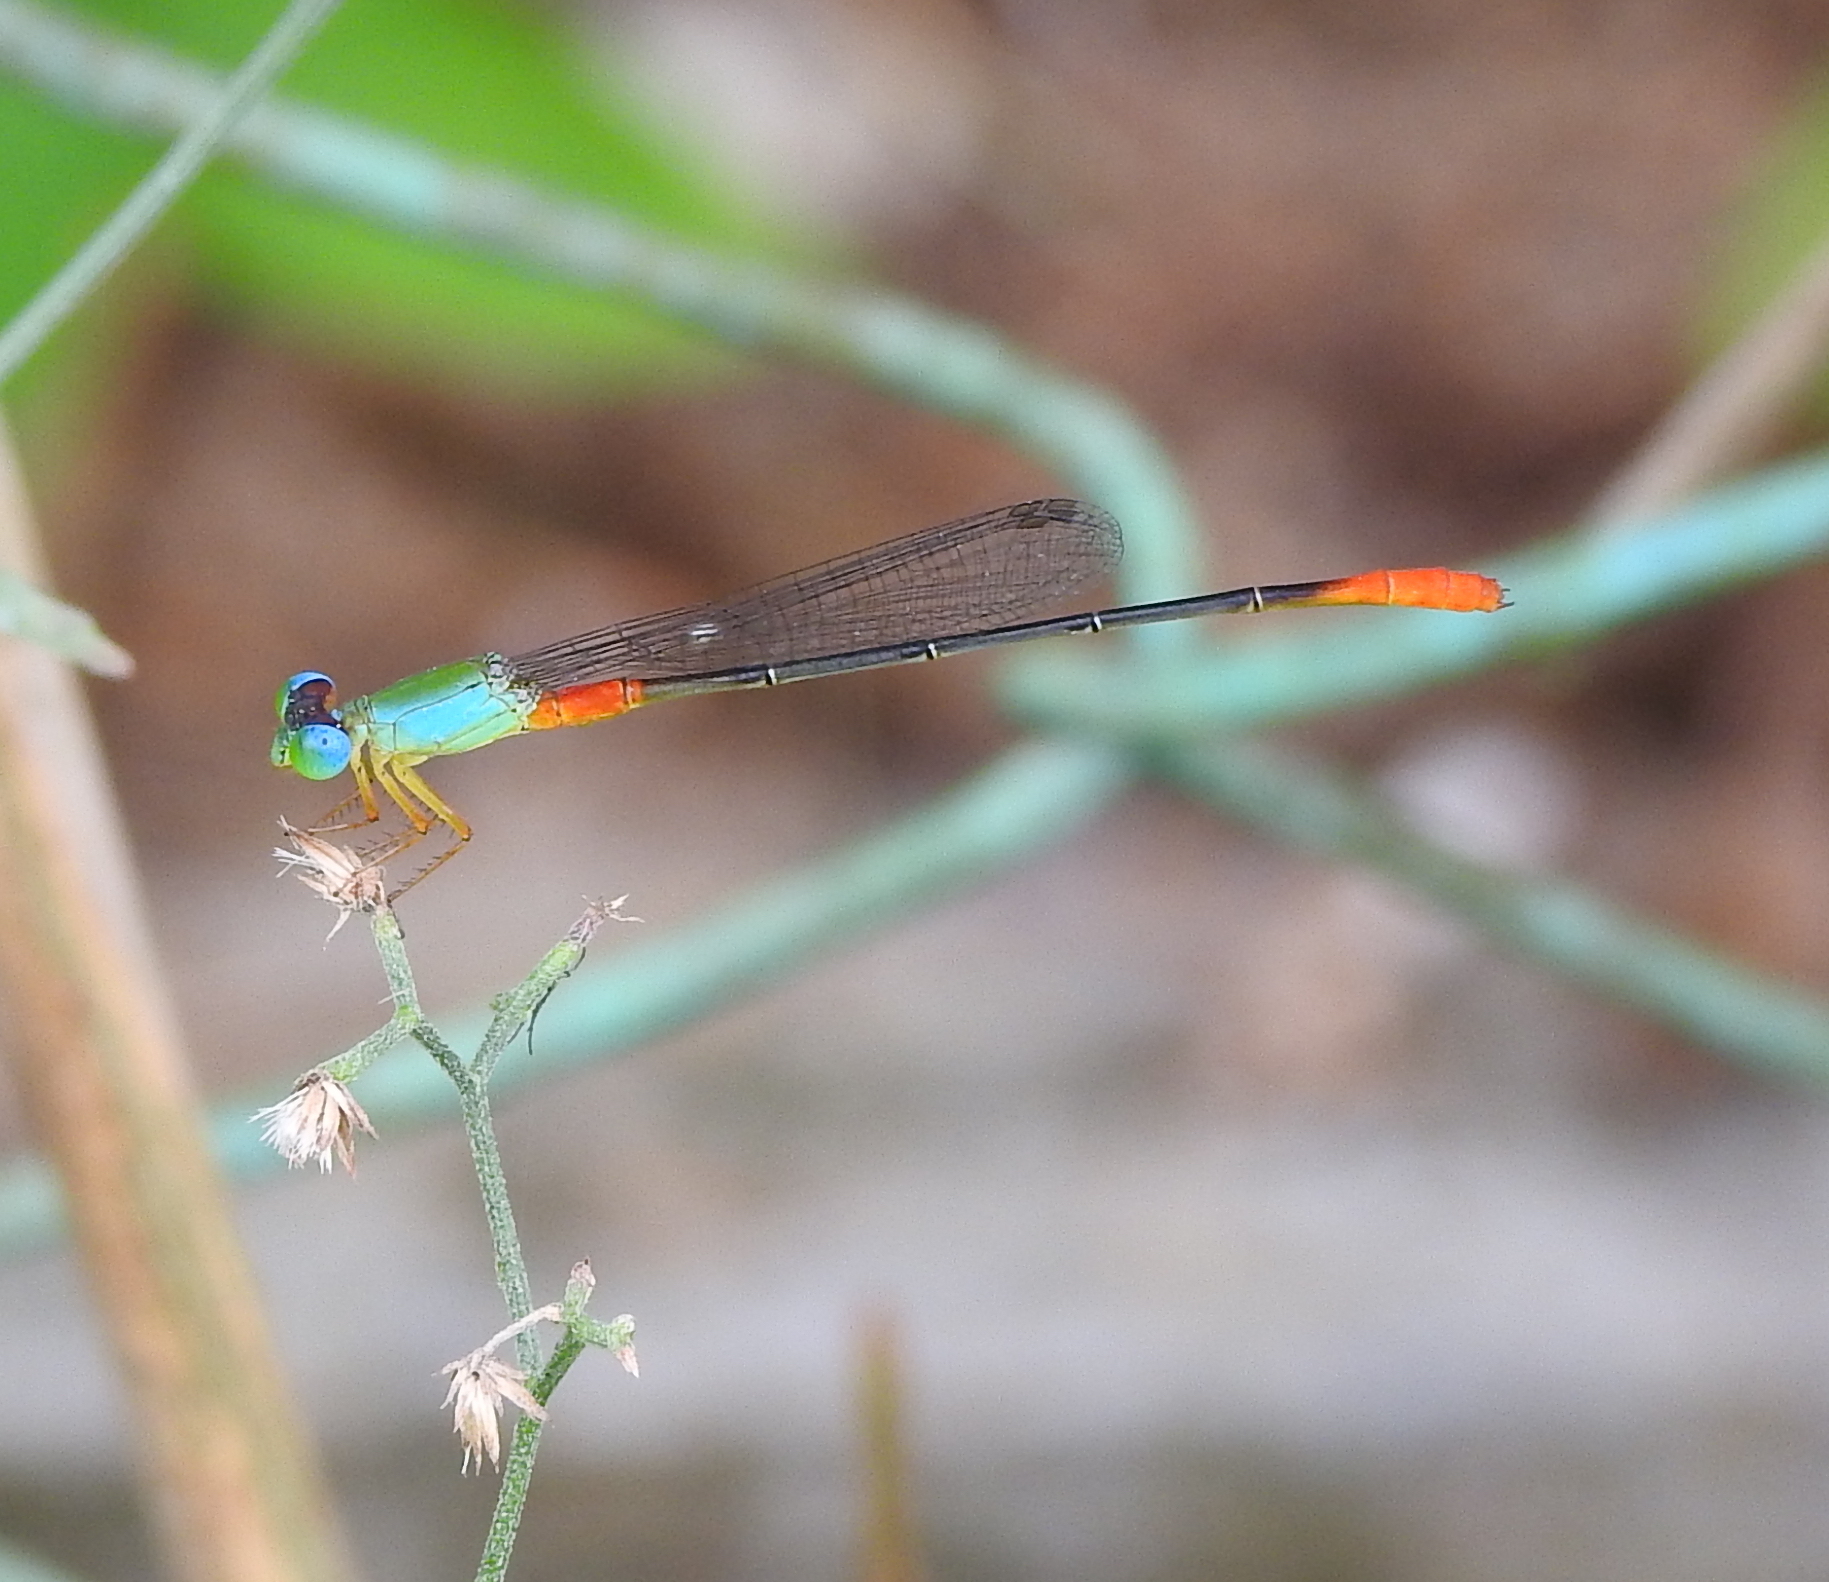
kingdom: Animalia
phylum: Arthropoda
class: Insecta
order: Odonata
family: Coenagrionidae
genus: Ceriagrion
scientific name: Ceriagrion cerinorubellum
